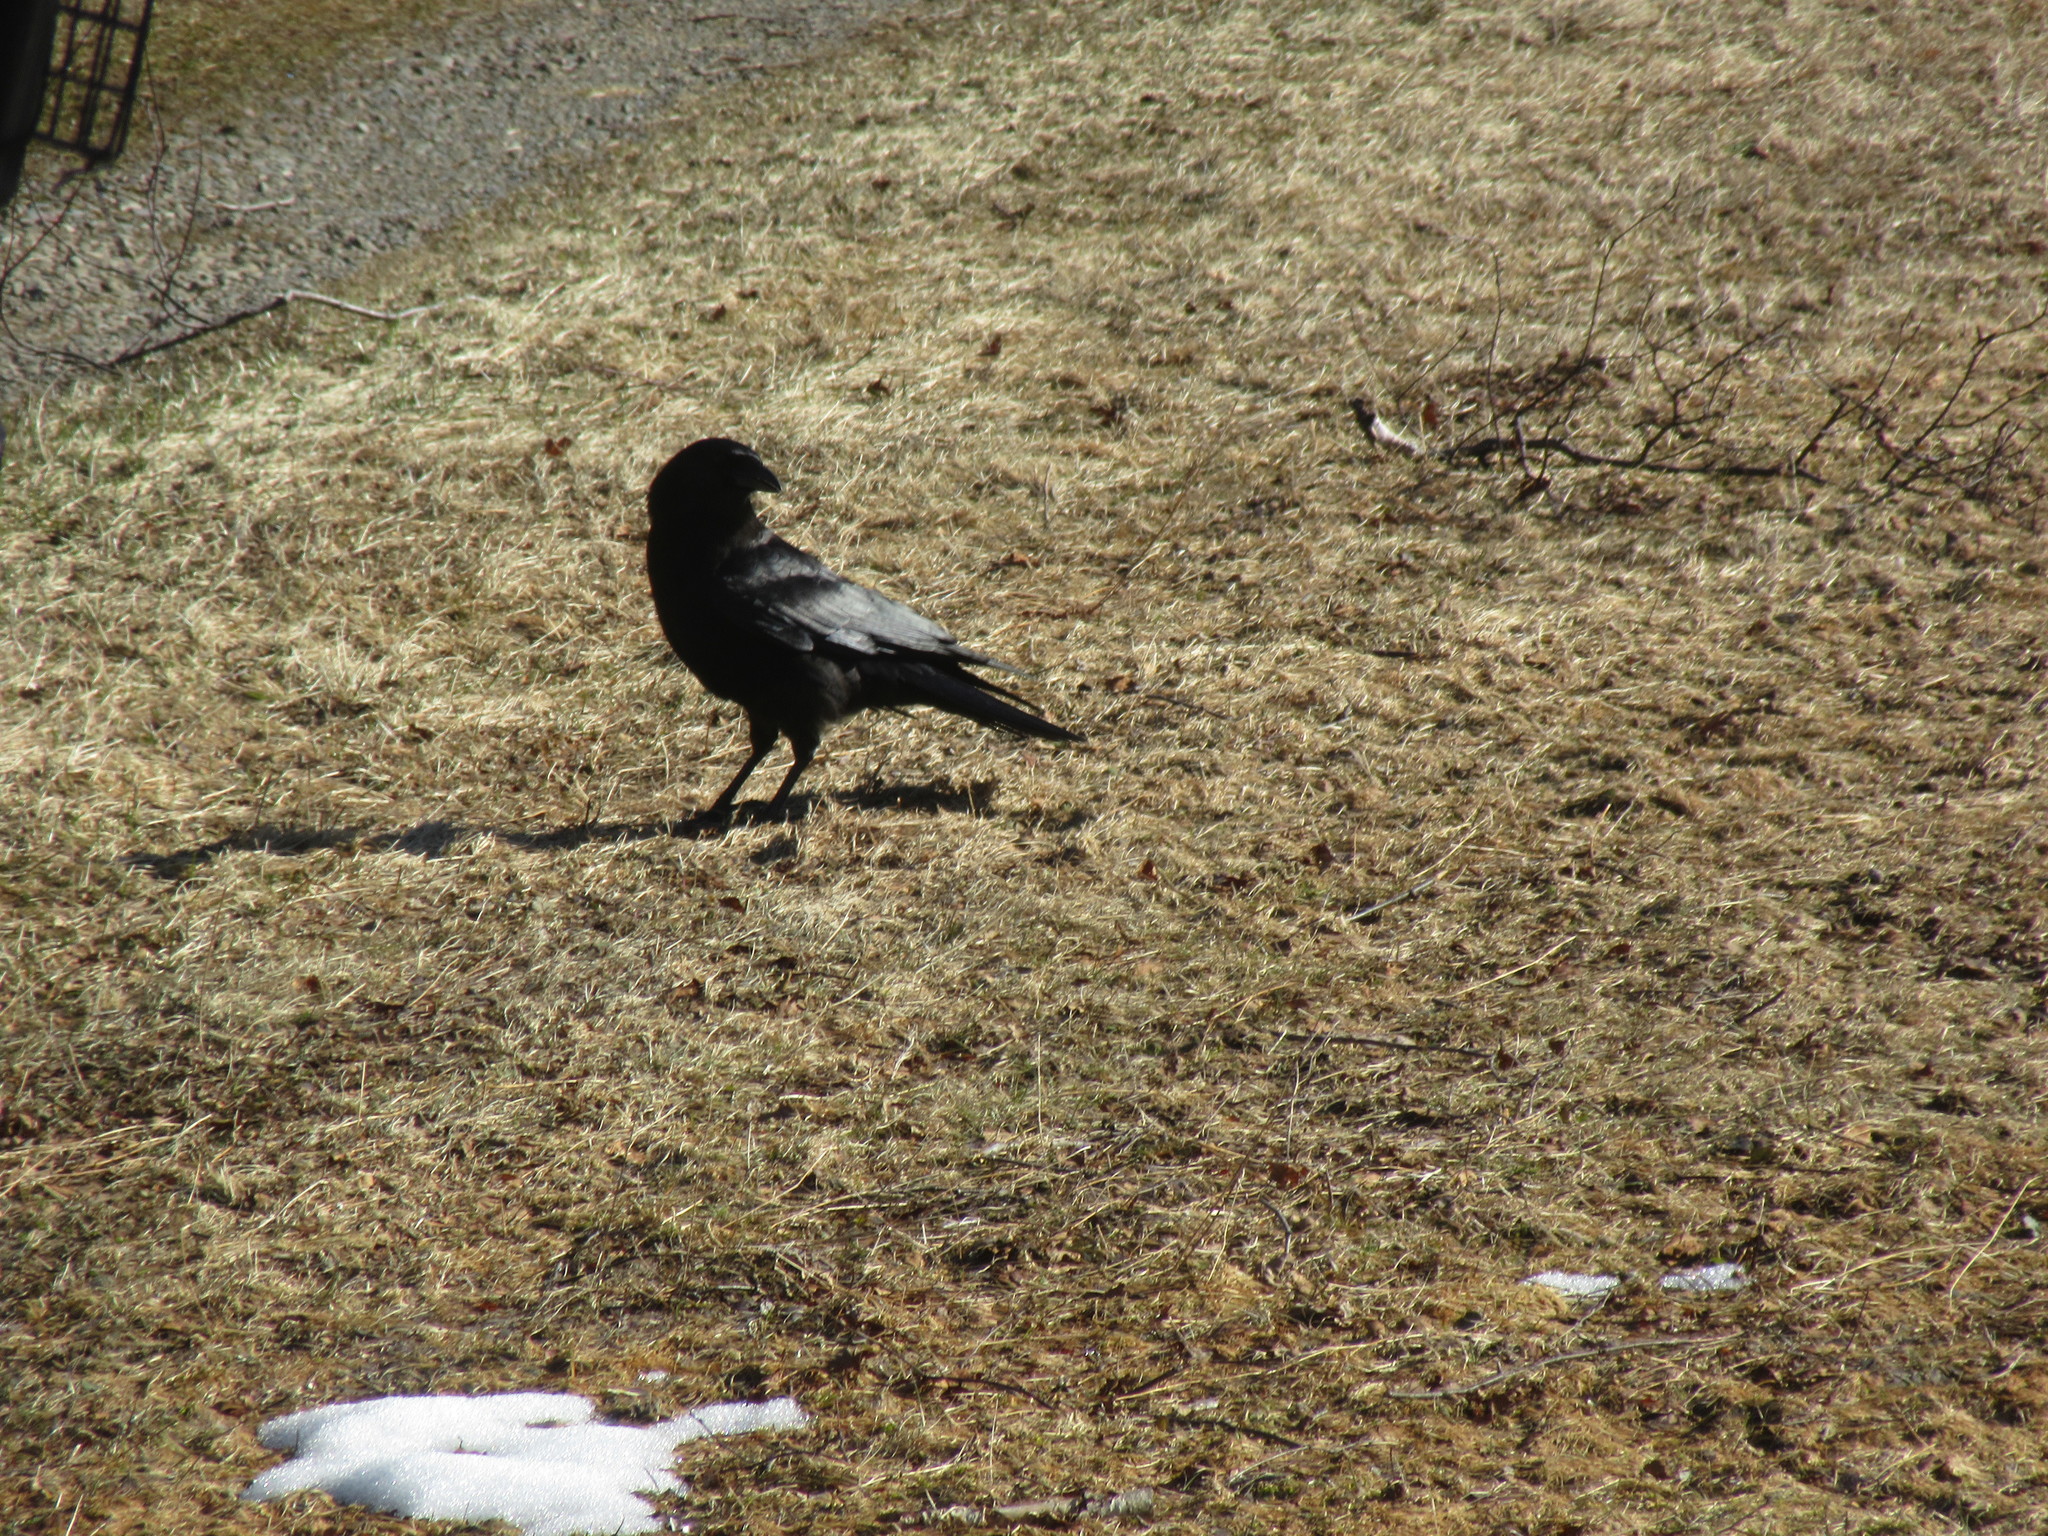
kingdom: Animalia
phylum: Chordata
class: Aves
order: Passeriformes
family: Corvidae
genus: Corvus
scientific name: Corvus brachyrhynchos
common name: American crow
